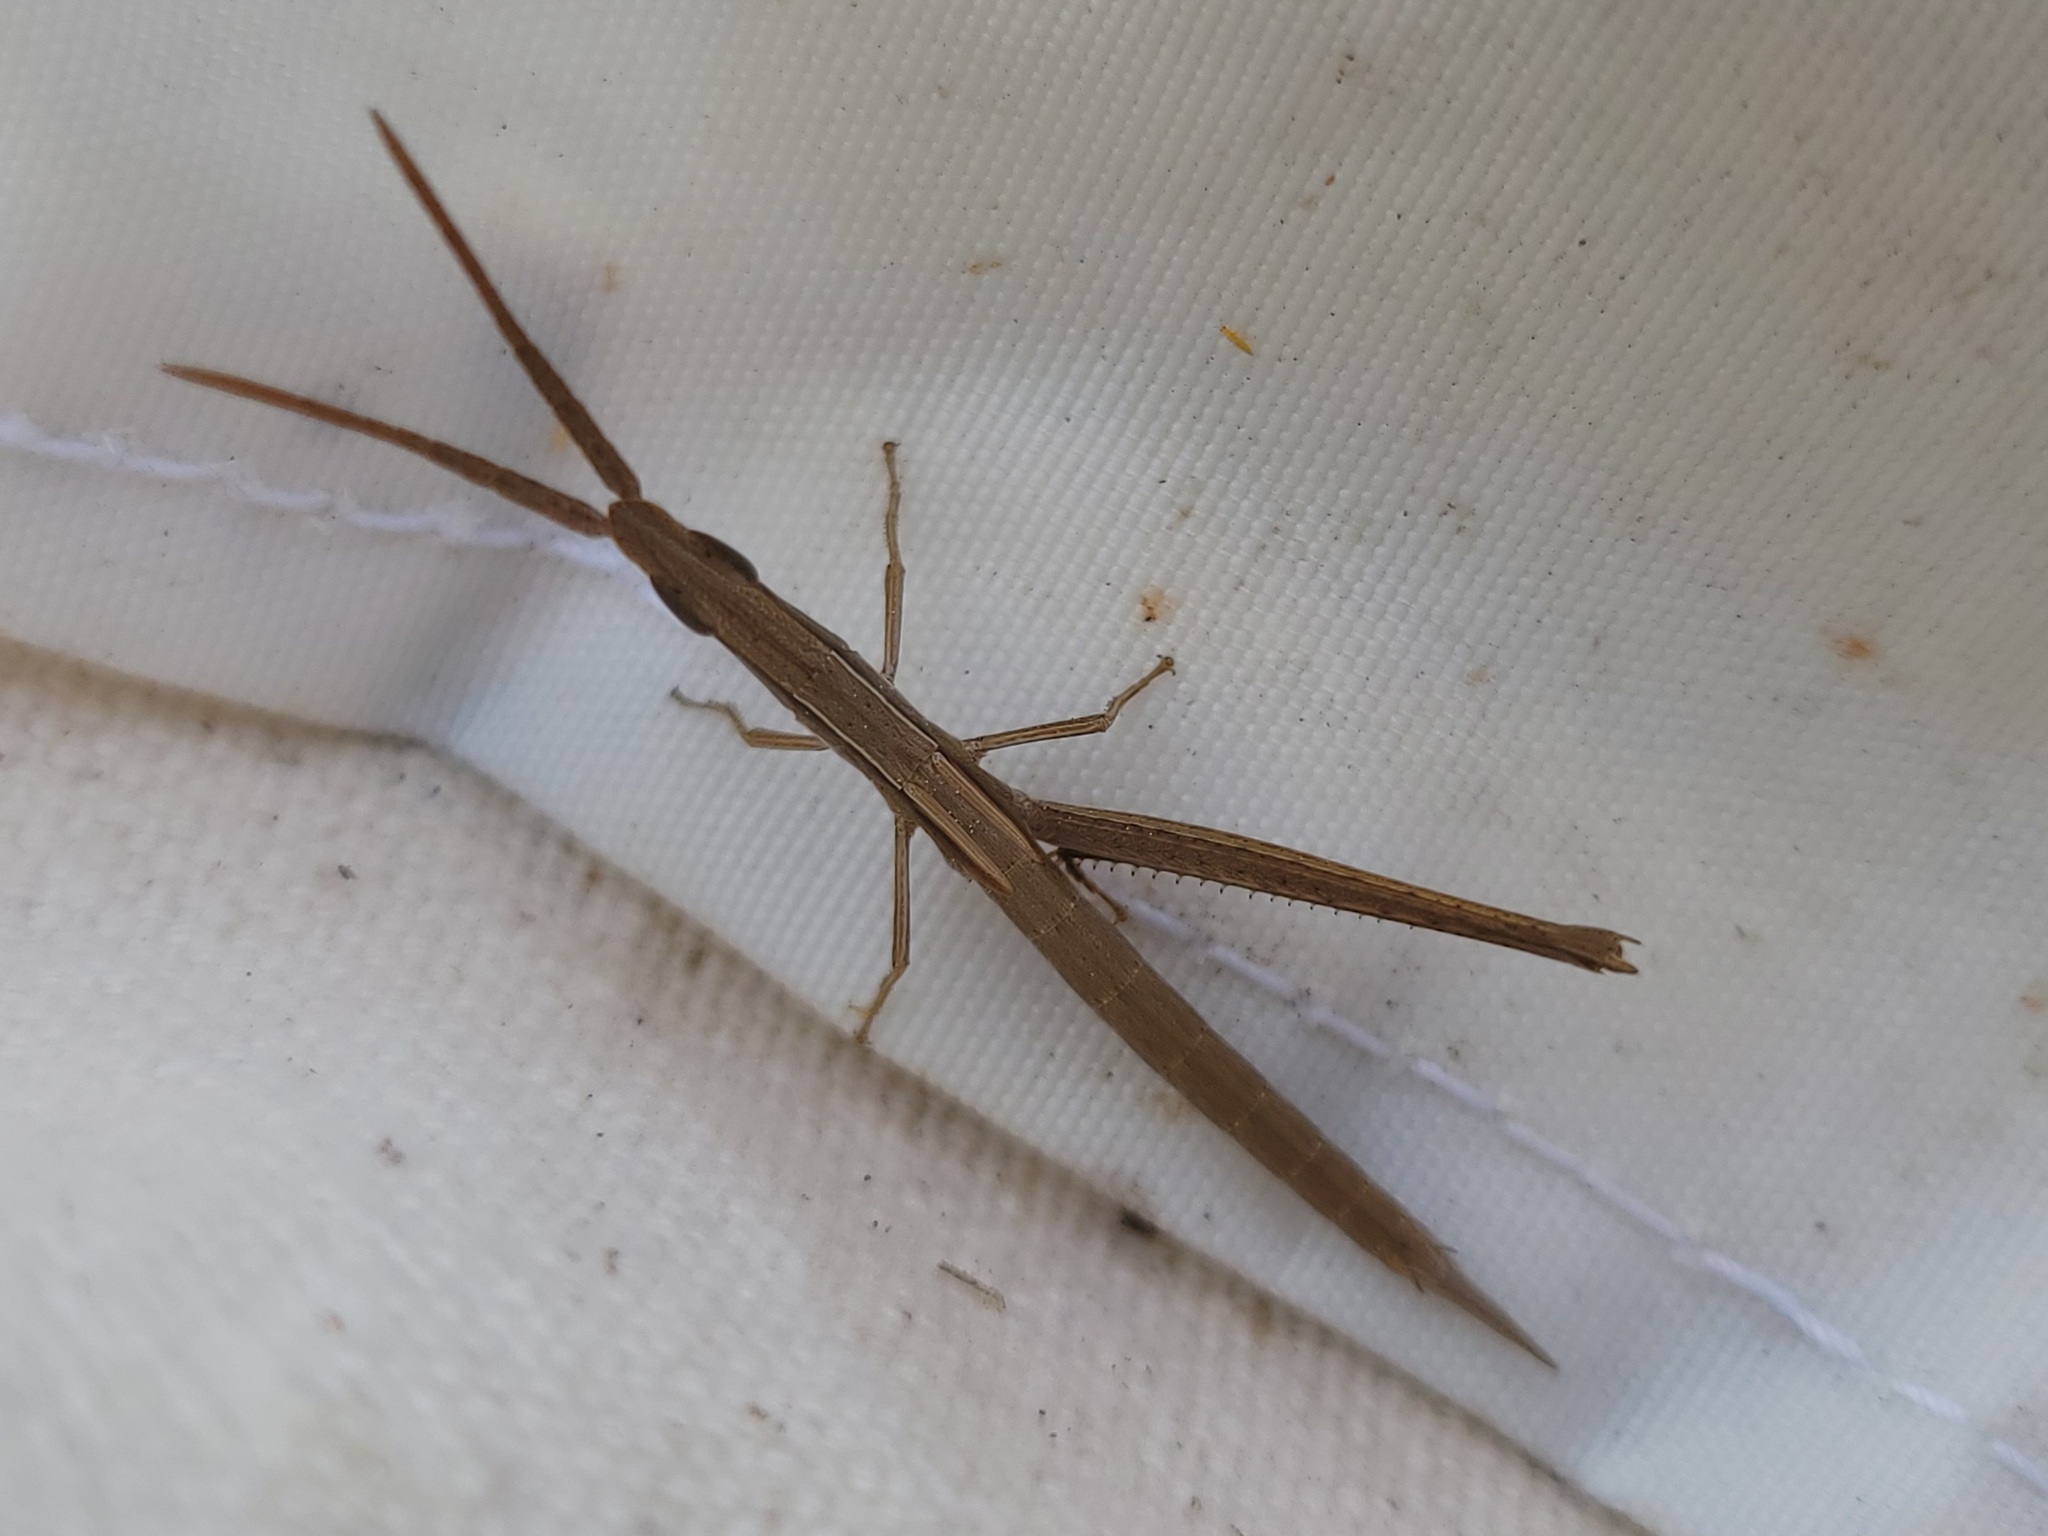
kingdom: Animalia
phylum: Arthropoda
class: Insecta
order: Orthoptera
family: Acrididae
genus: Achurum
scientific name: Achurum carinatum
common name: Long-headed toothpick grasshopper
